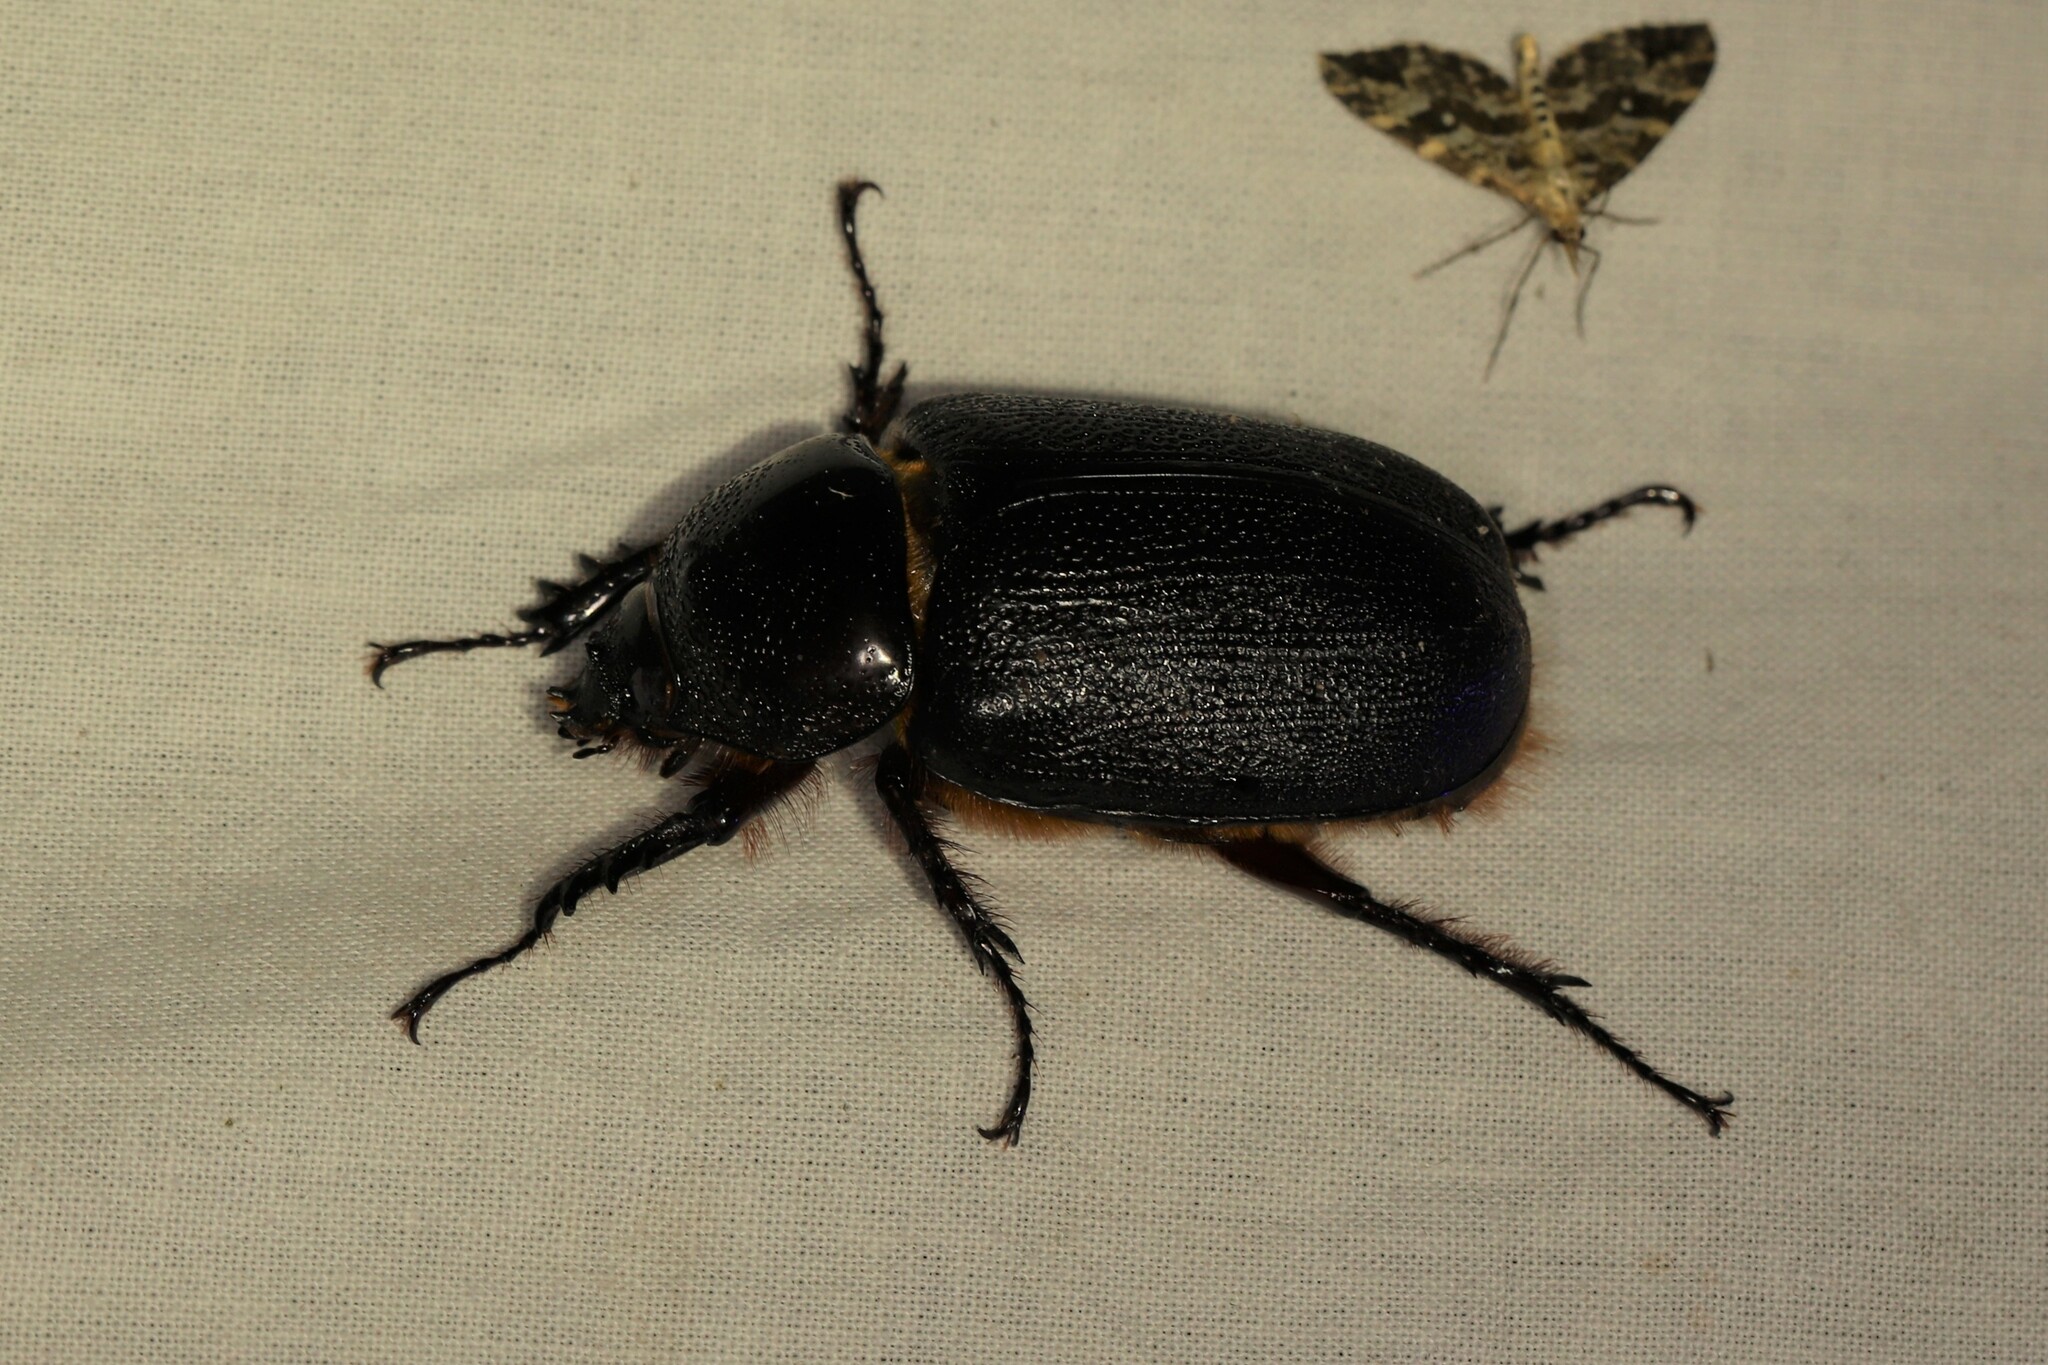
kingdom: Animalia
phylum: Arthropoda
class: Insecta
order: Coleoptera
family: Scarabaeidae
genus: Golofa
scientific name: Golofa porteri
